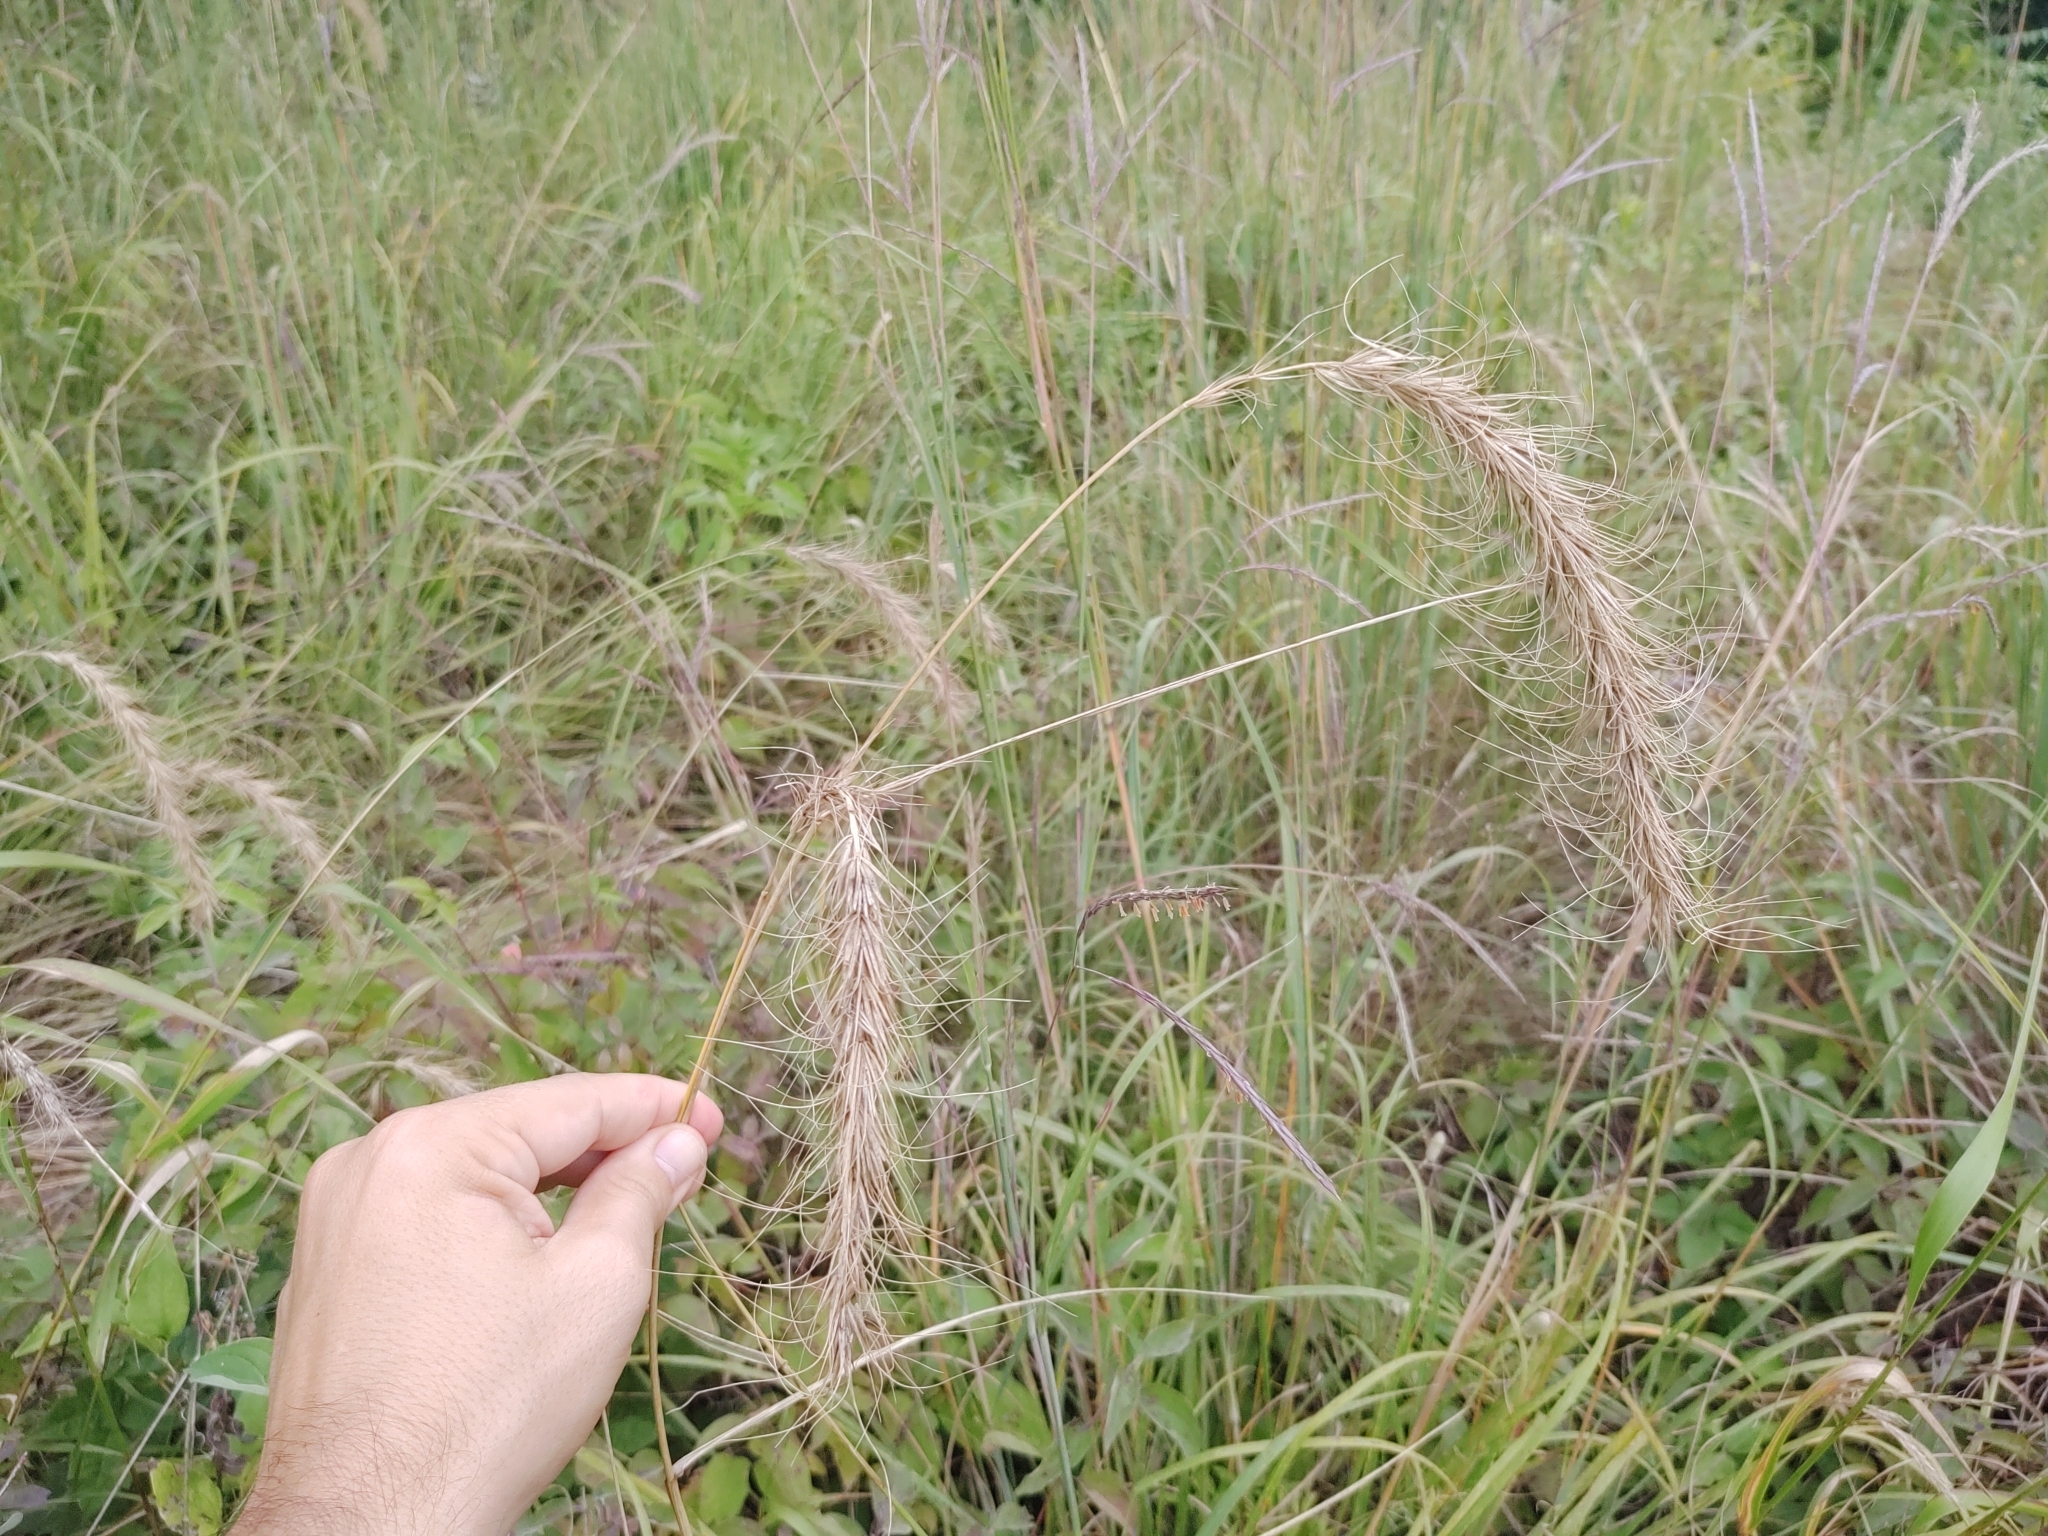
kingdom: Plantae
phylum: Tracheophyta
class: Liliopsida
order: Poales
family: Poaceae
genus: Elymus
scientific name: Elymus canadensis
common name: Canada wild rye
